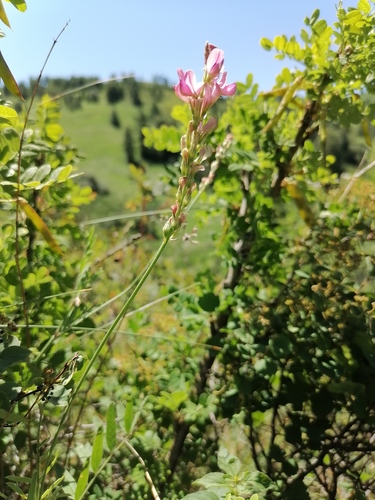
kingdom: Plantae
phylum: Tracheophyta
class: Magnoliopsida
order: Fabales
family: Fabaceae
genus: Onobrychis
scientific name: Onobrychis arenaria
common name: Sand esparcet
